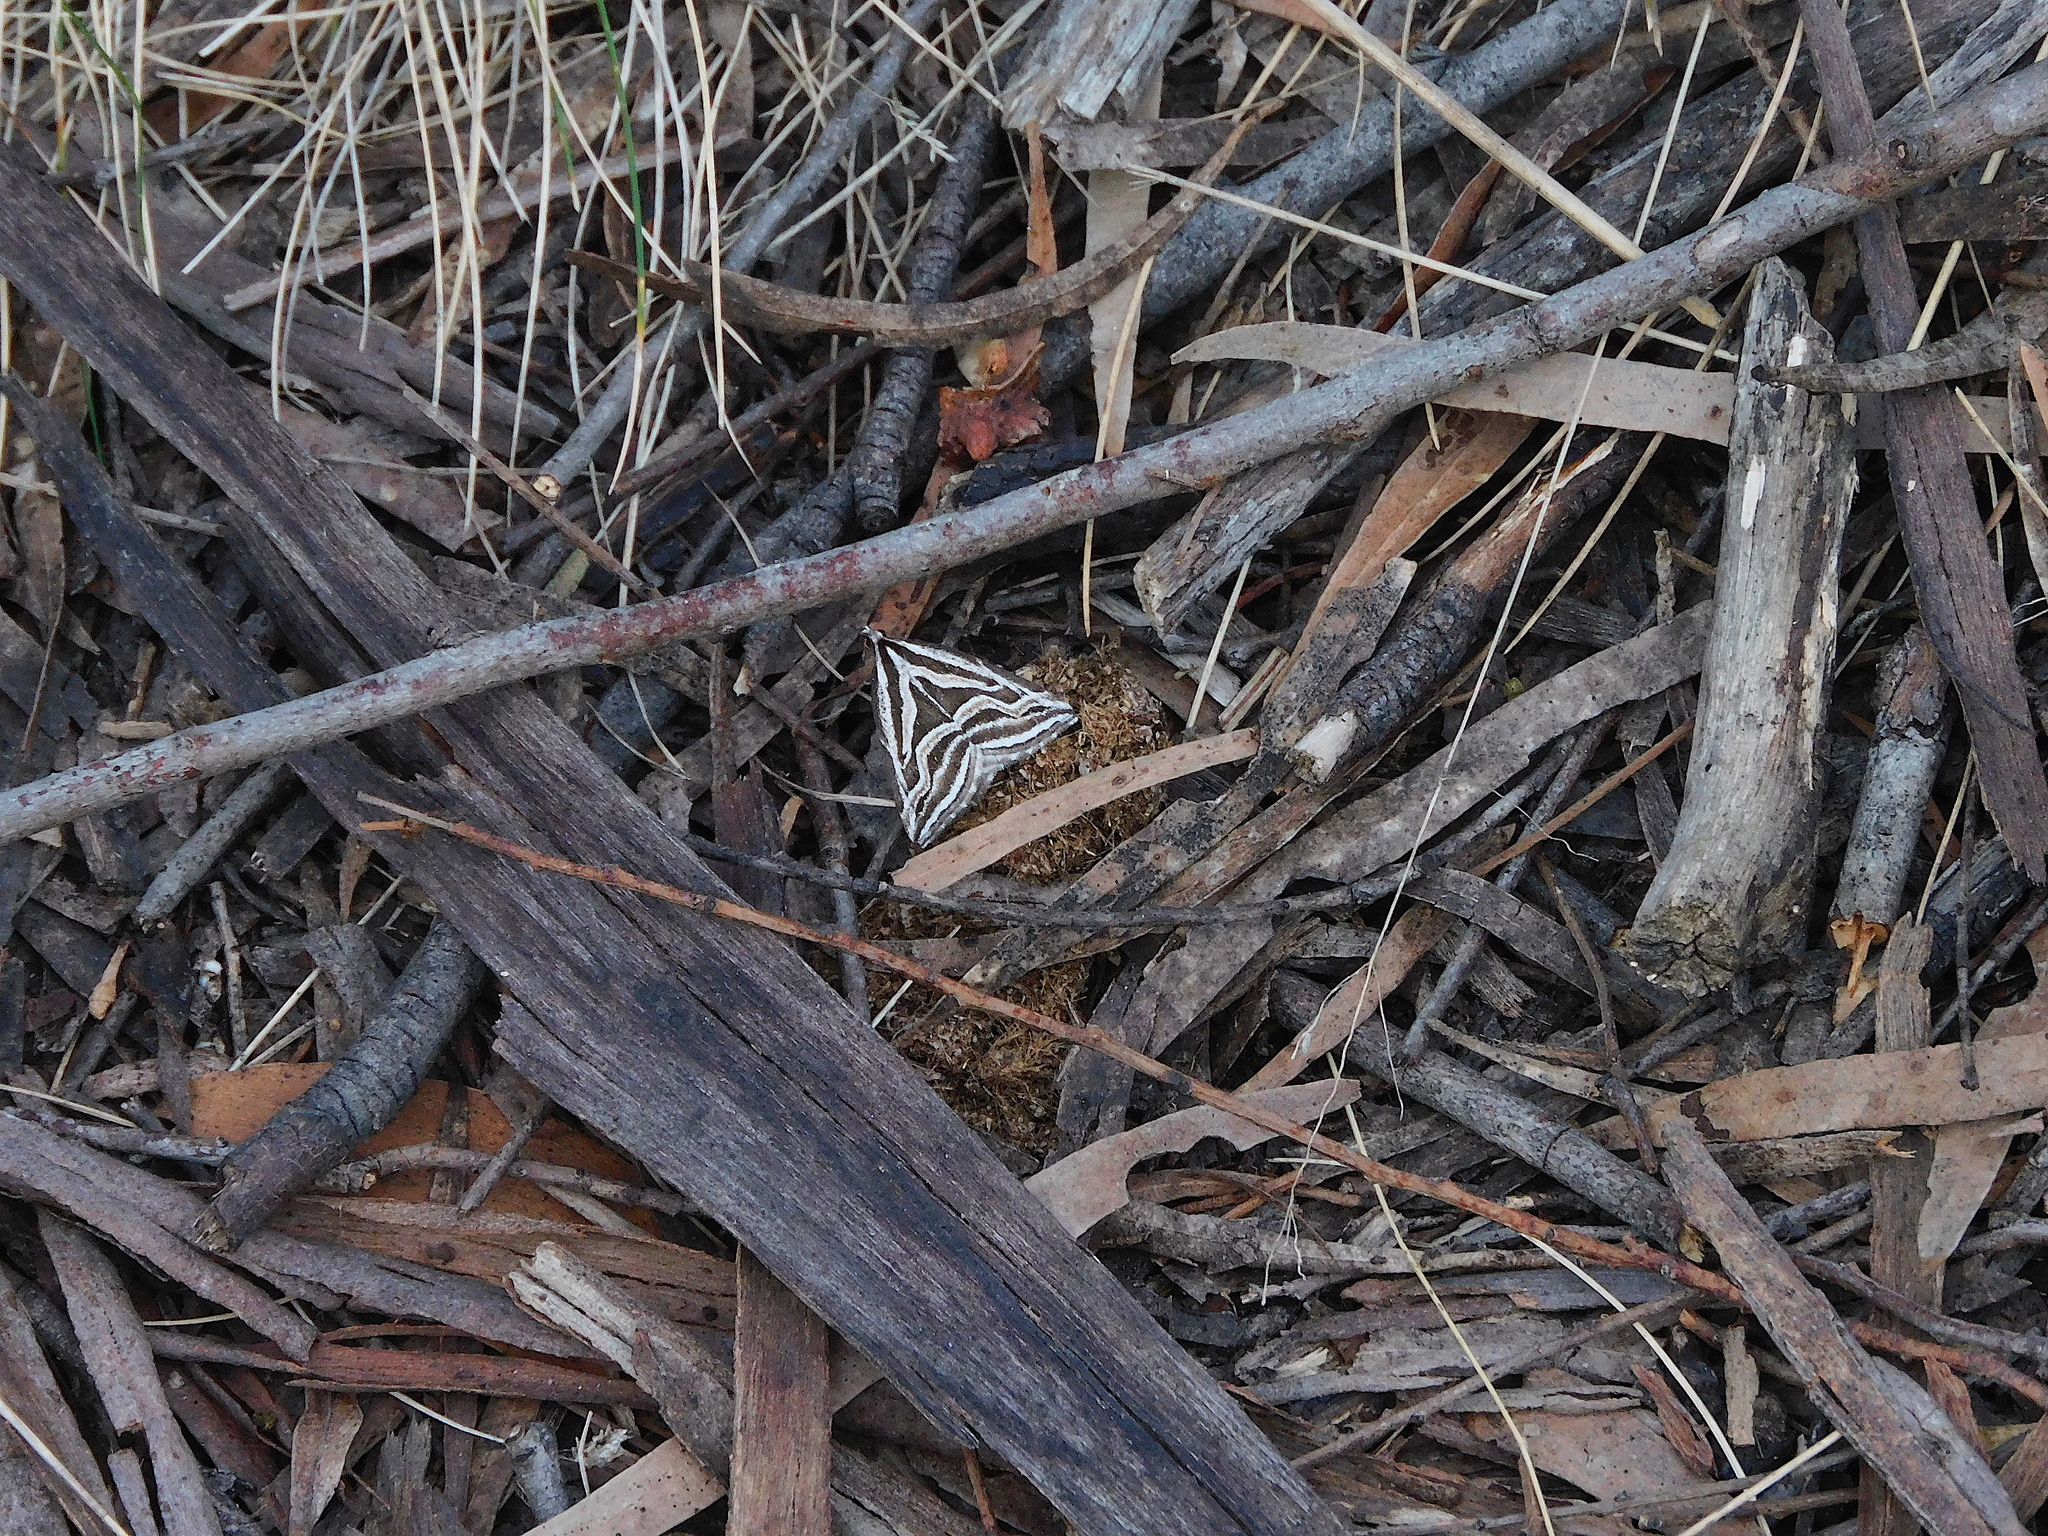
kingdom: Animalia
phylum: Arthropoda
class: Insecta
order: Lepidoptera
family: Geometridae
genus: Dichromodes
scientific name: Dichromodes confluaria
